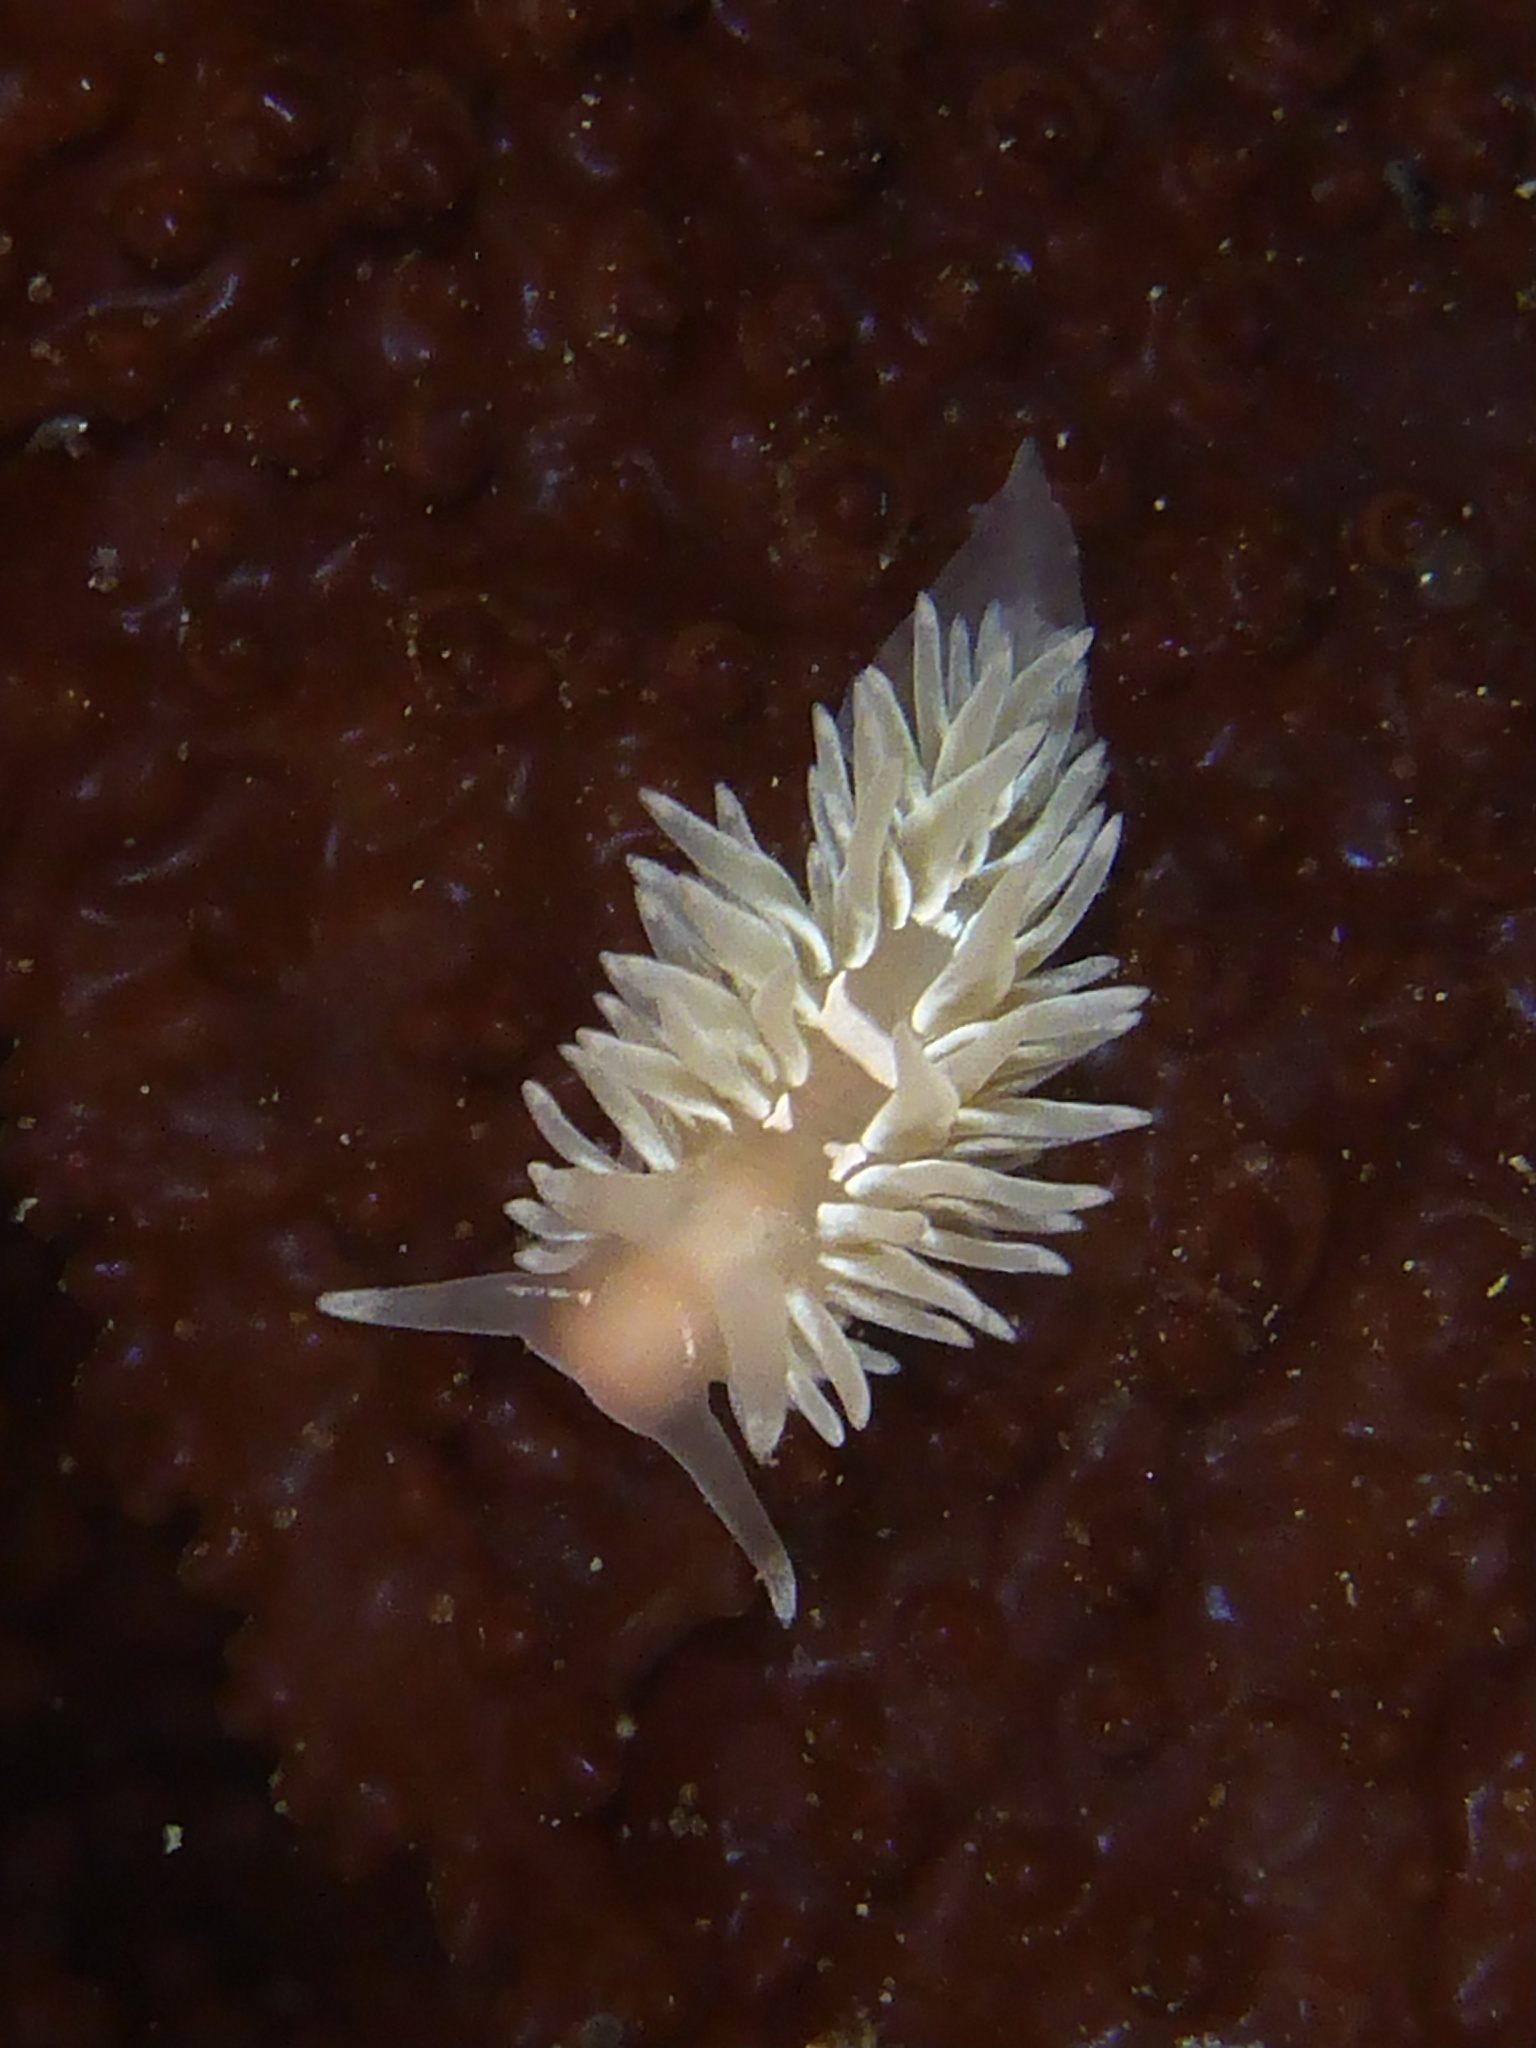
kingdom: Animalia
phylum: Mollusca
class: Gastropoda
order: Nudibranchia
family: Aeolidiidae
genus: Aeolidia
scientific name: Aeolidia loui
